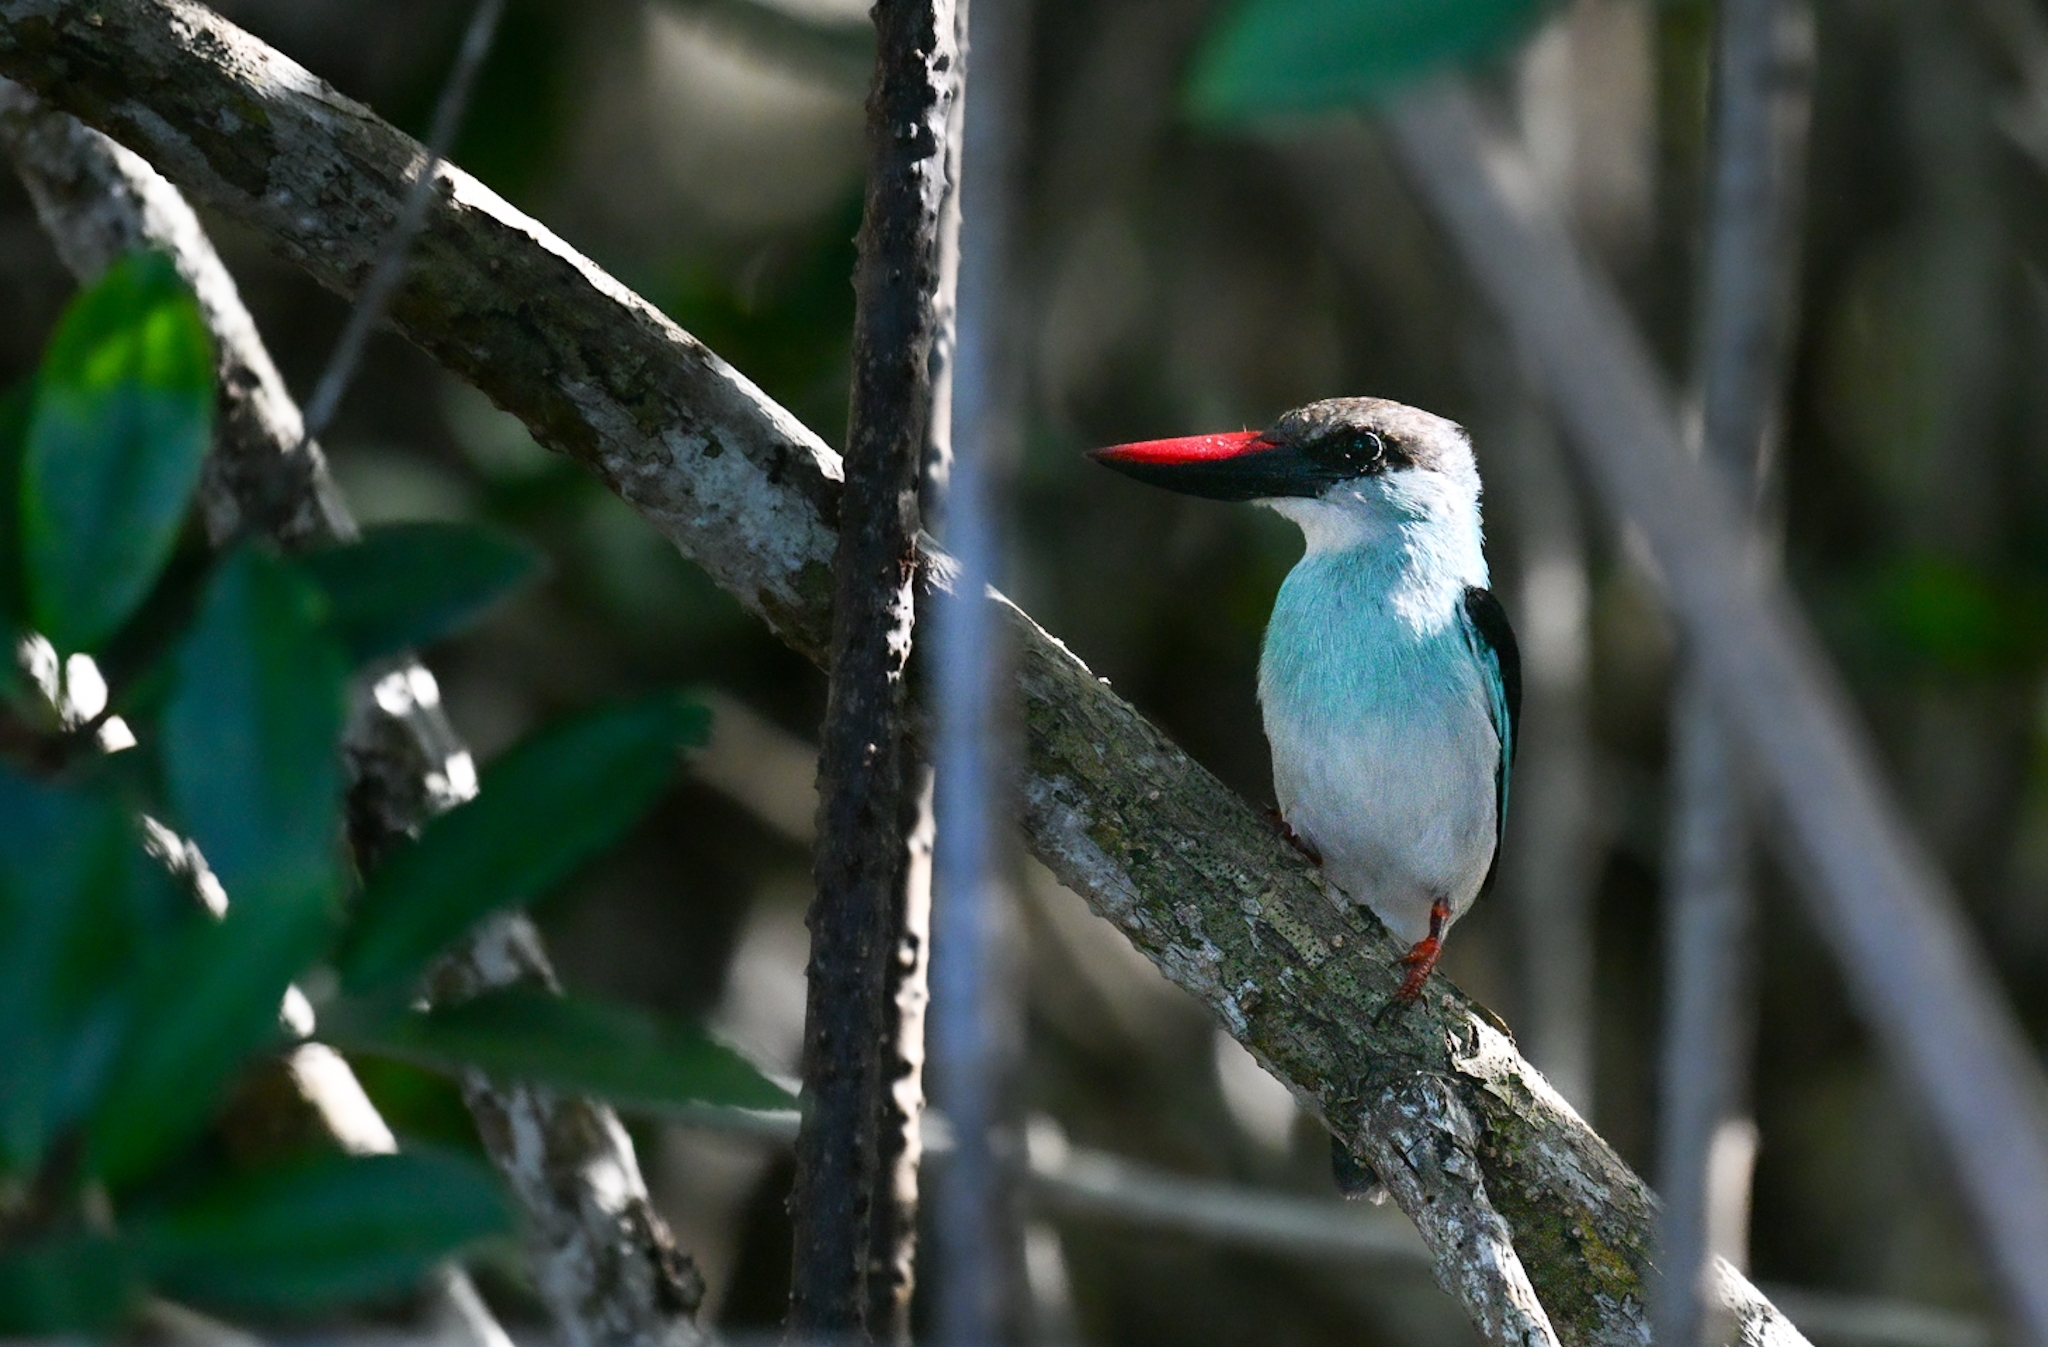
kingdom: Animalia
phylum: Chordata
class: Aves
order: Coraciiformes
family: Alcedinidae
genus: Halcyon
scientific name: Halcyon malimbica
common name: Blue-breasted kingfisher
